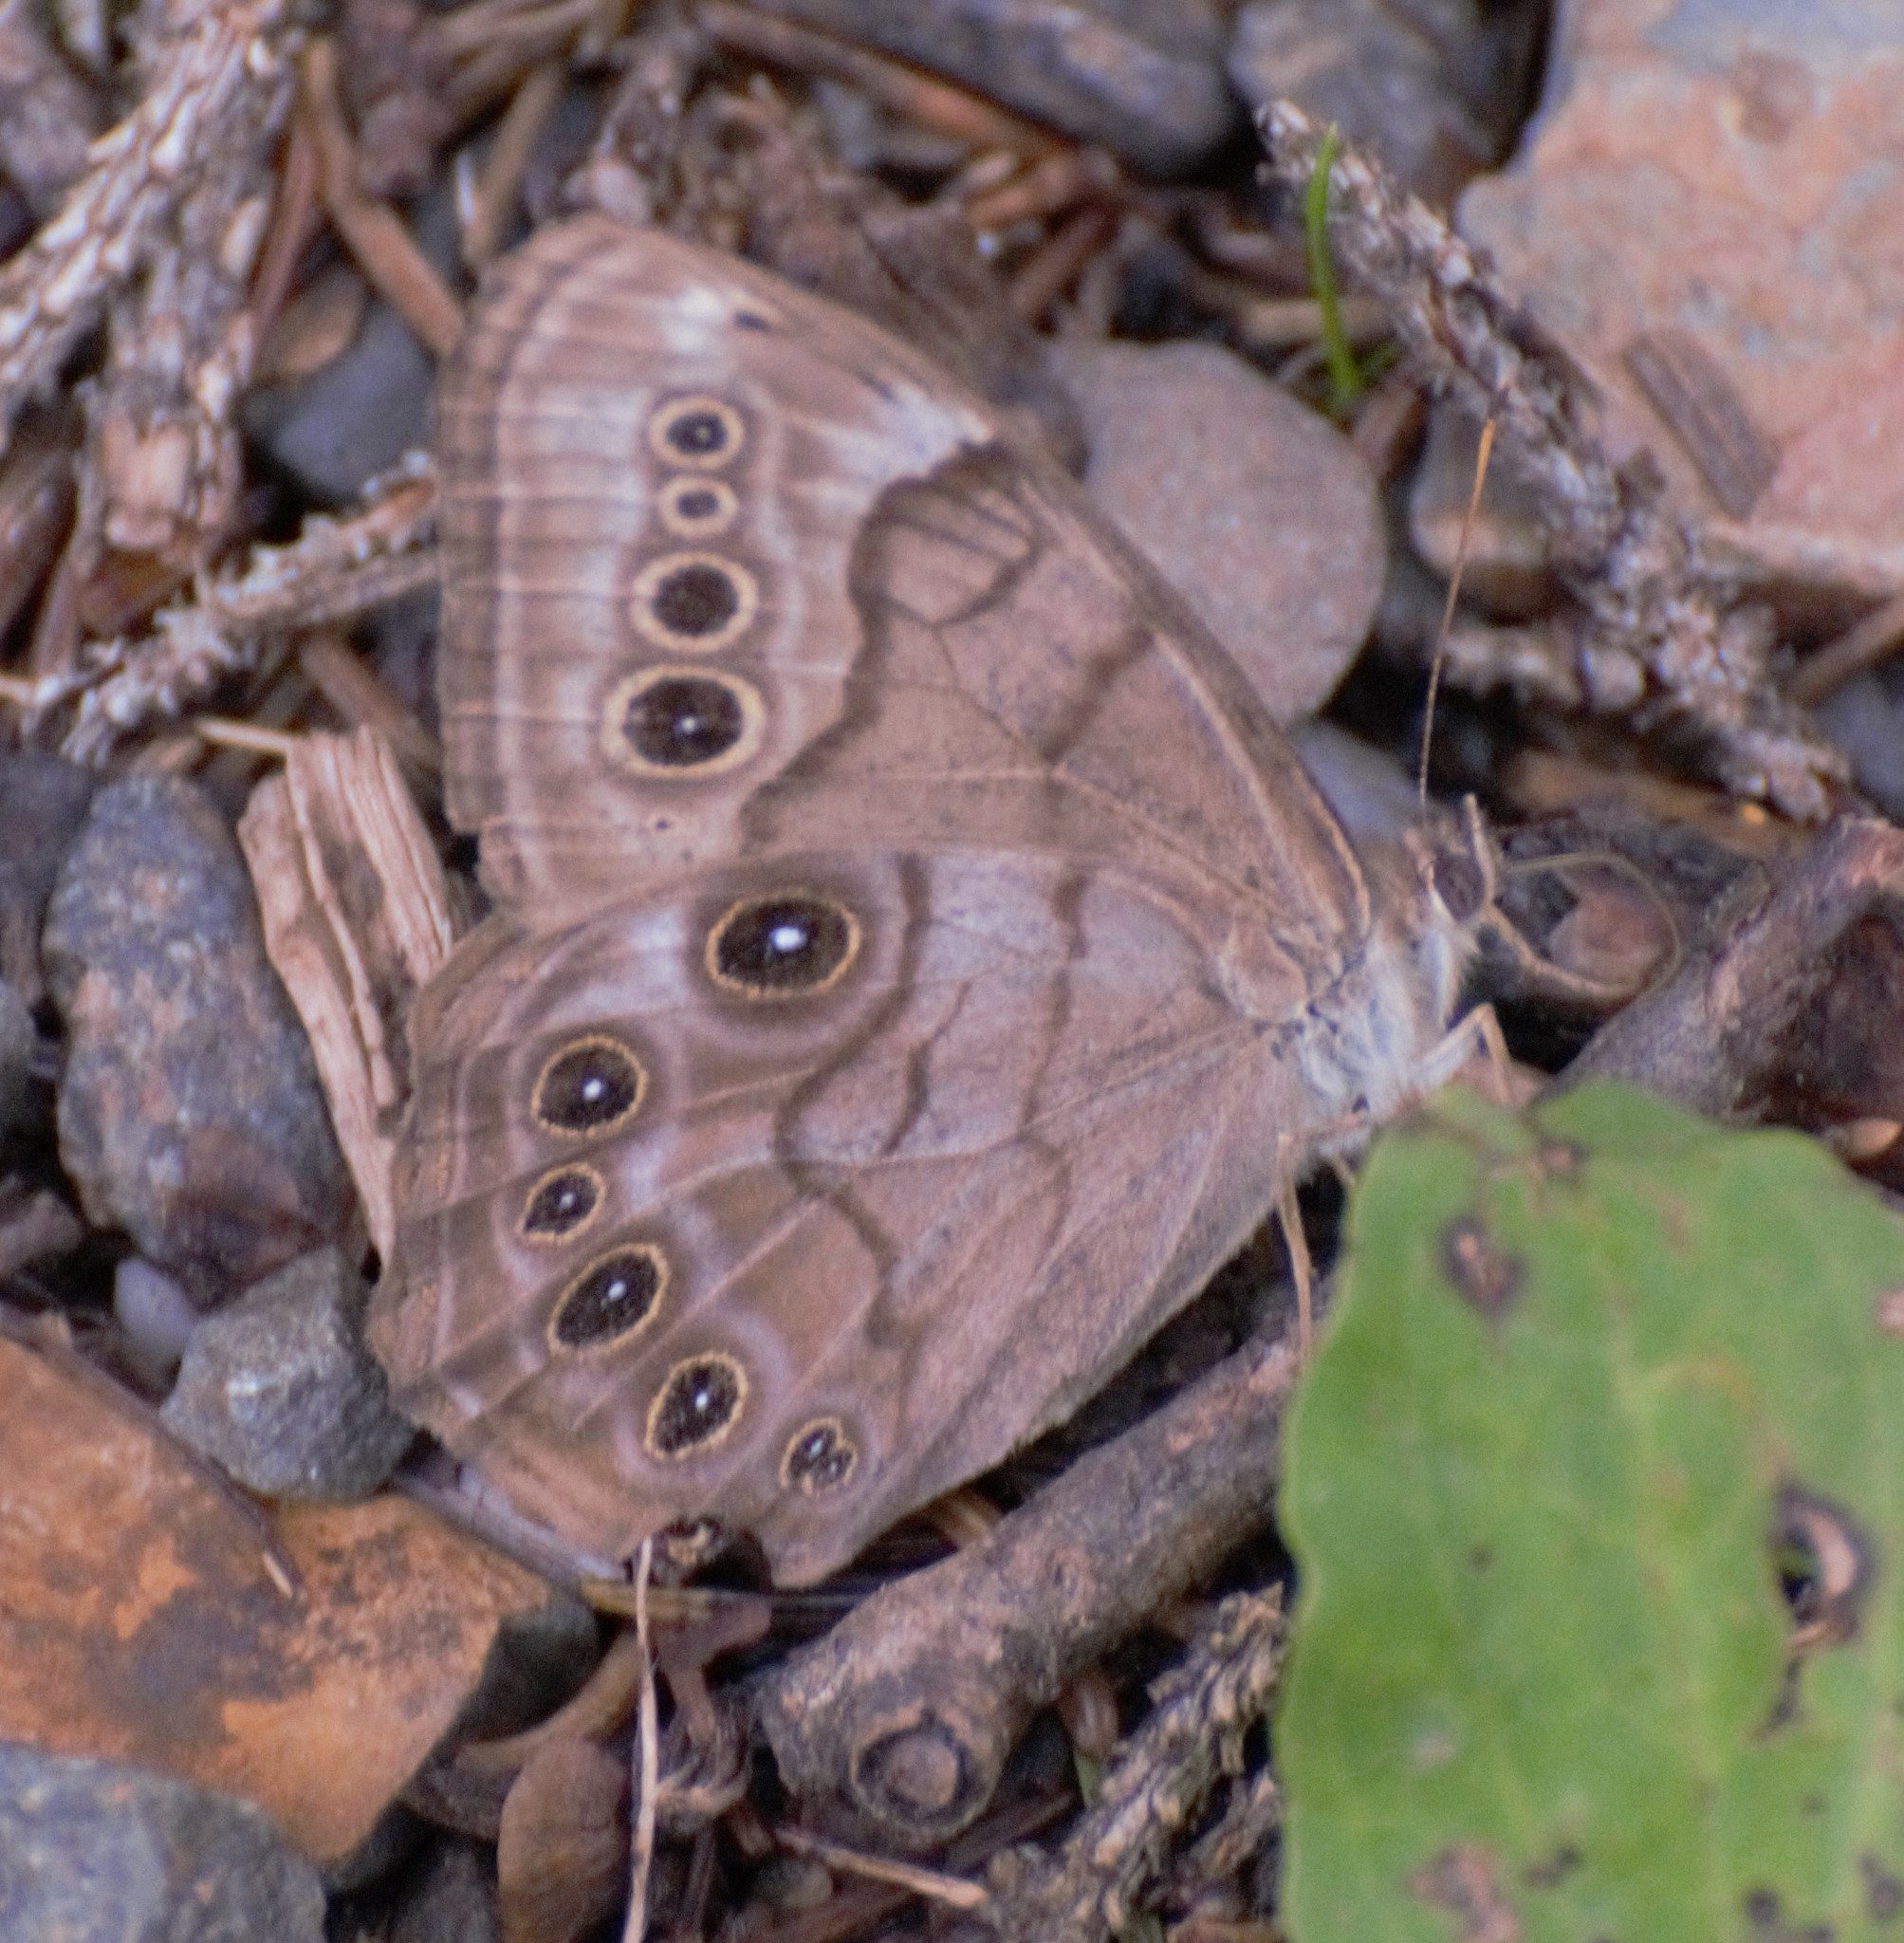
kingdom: Animalia
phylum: Arthropoda
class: Insecta
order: Lepidoptera
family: Nymphalidae
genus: Lethe
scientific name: Lethe anthedon
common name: Northern pearly-eye
